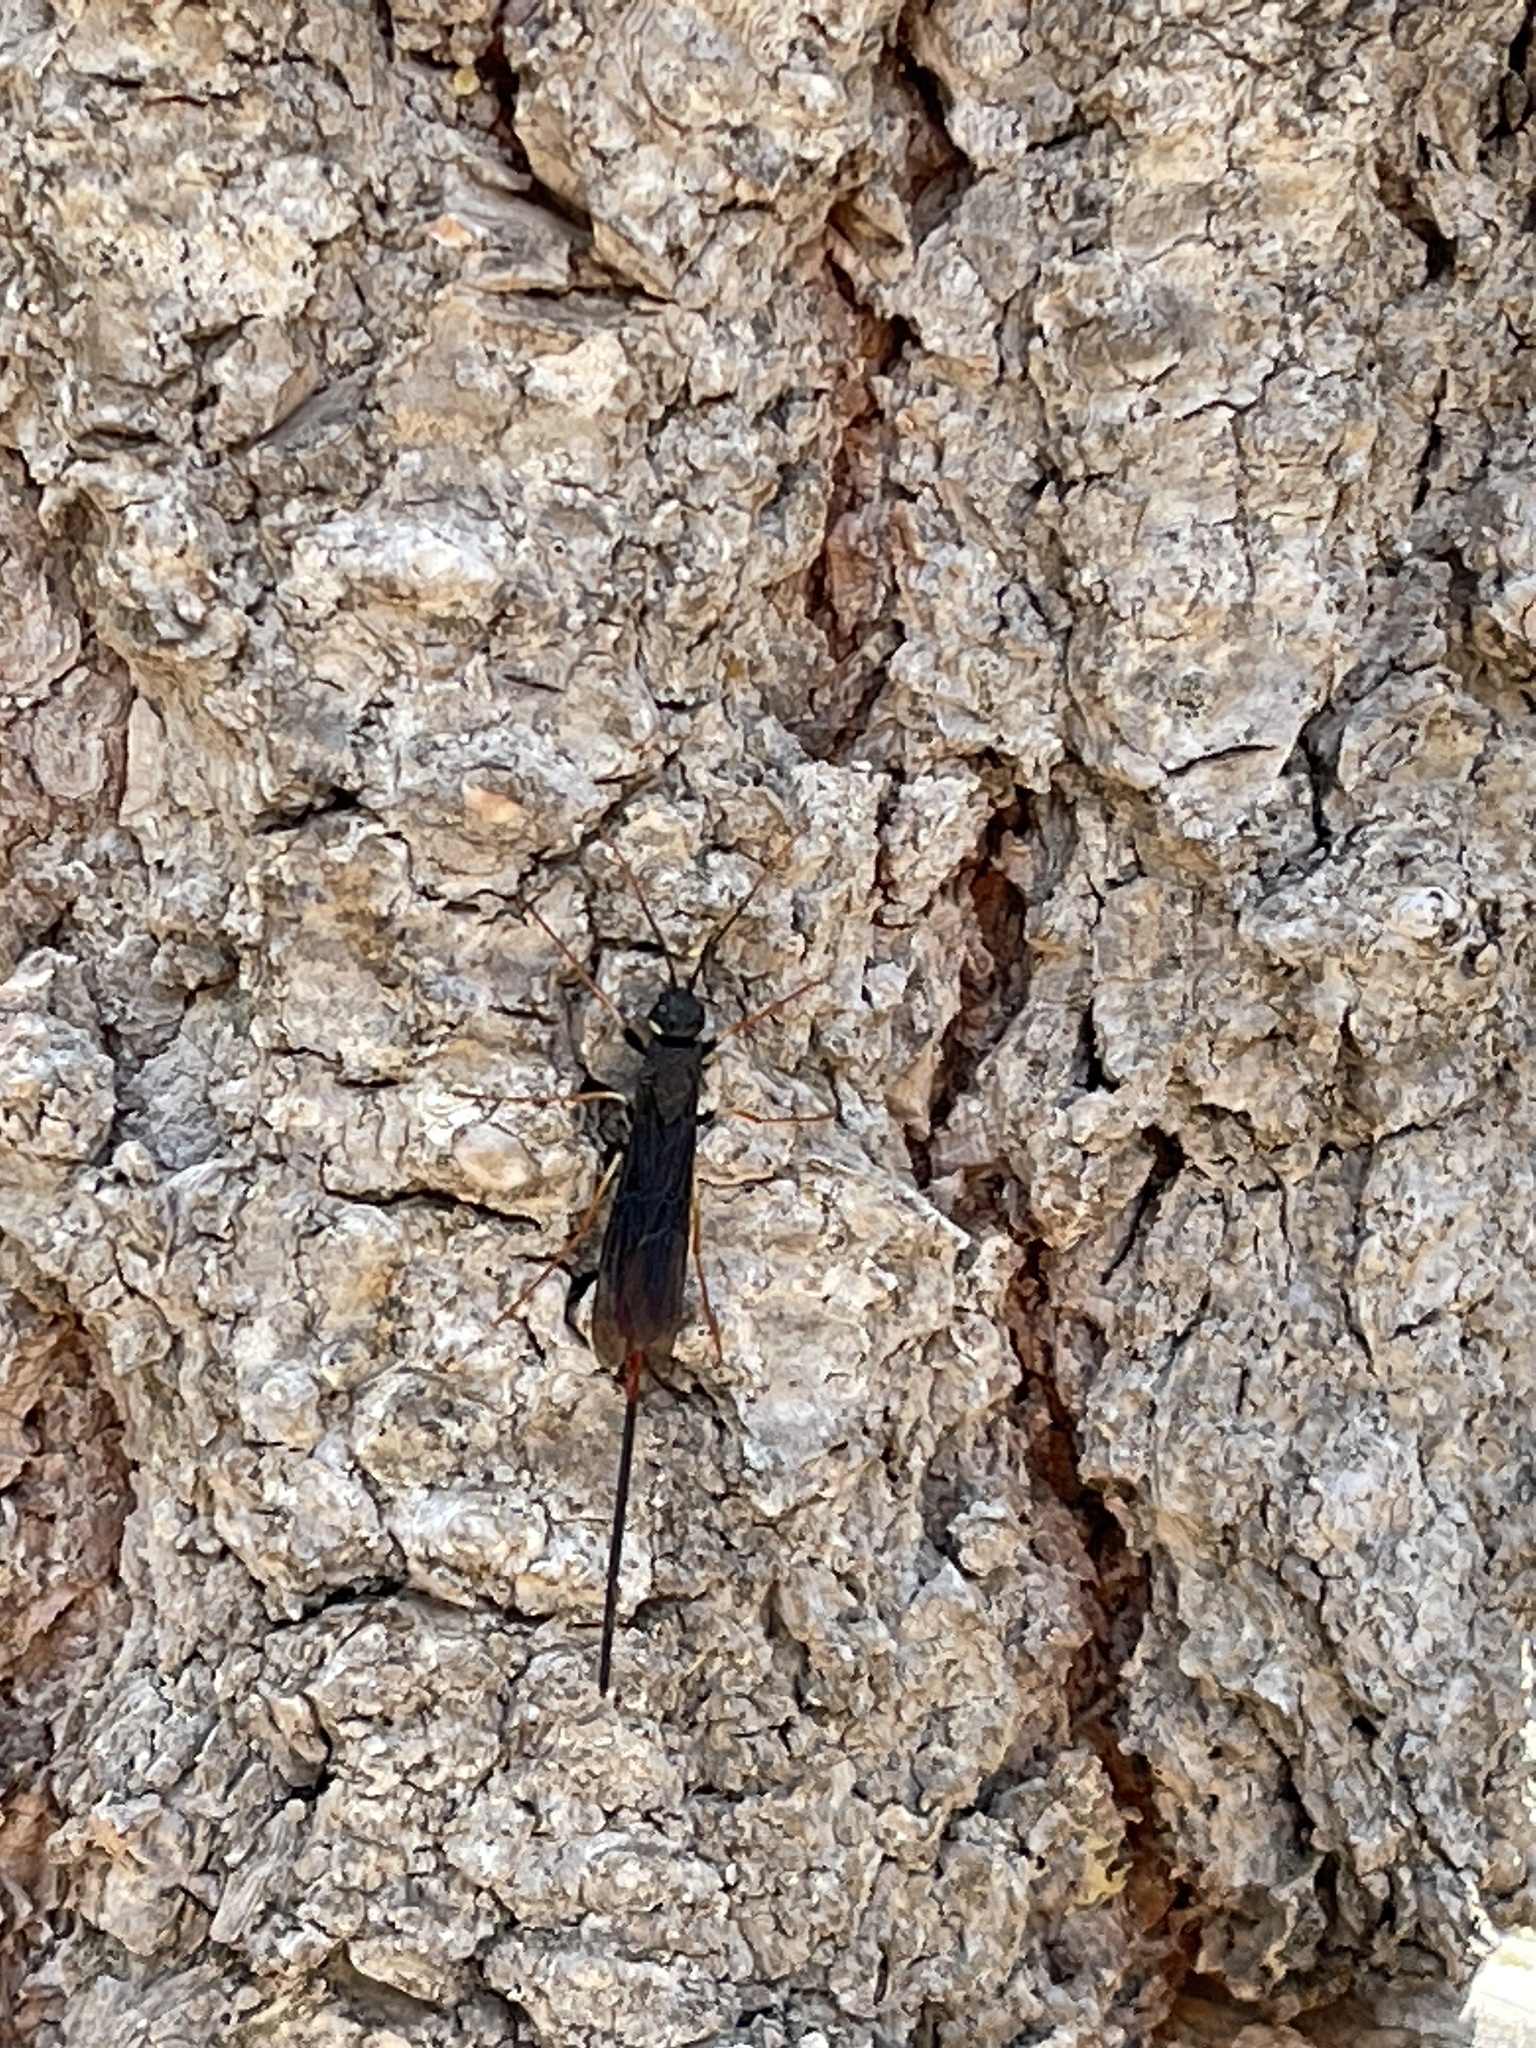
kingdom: Animalia
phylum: Arthropoda
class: Insecta
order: Hymenoptera
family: Siricidae
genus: Xeris
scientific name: Xeris morrisoni
